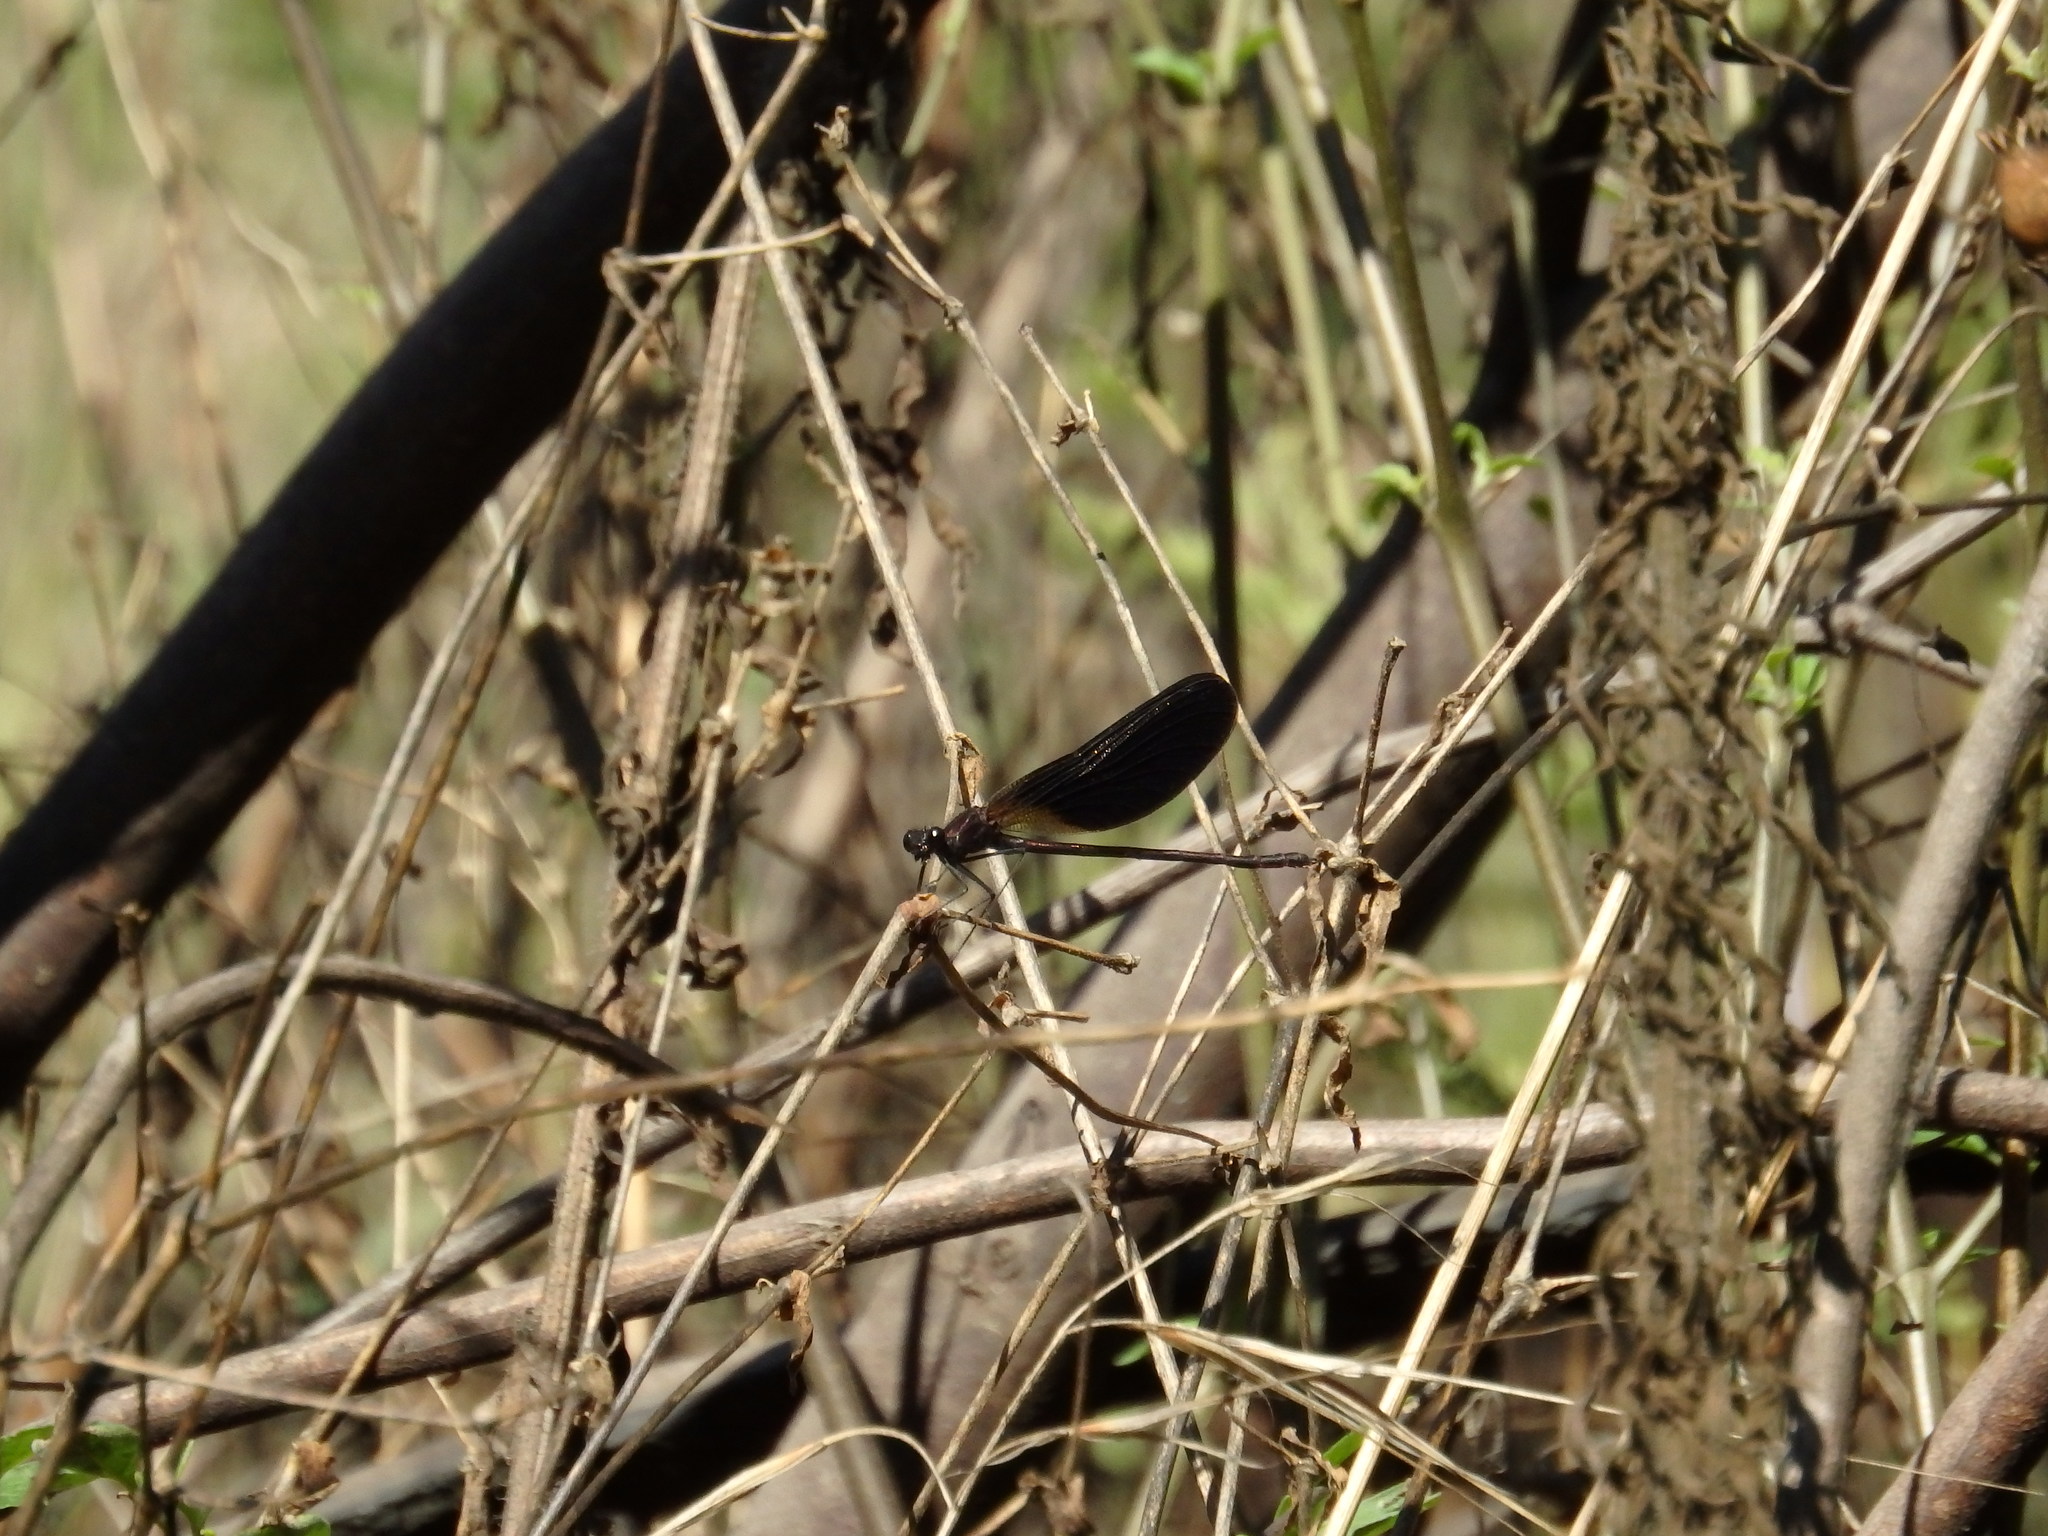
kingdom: Animalia
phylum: Arthropoda
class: Insecta
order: Odonata
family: Calopterygidae
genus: Calopteryx
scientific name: Calopteryx haemorrhoidalis
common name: Copper demoiselle
